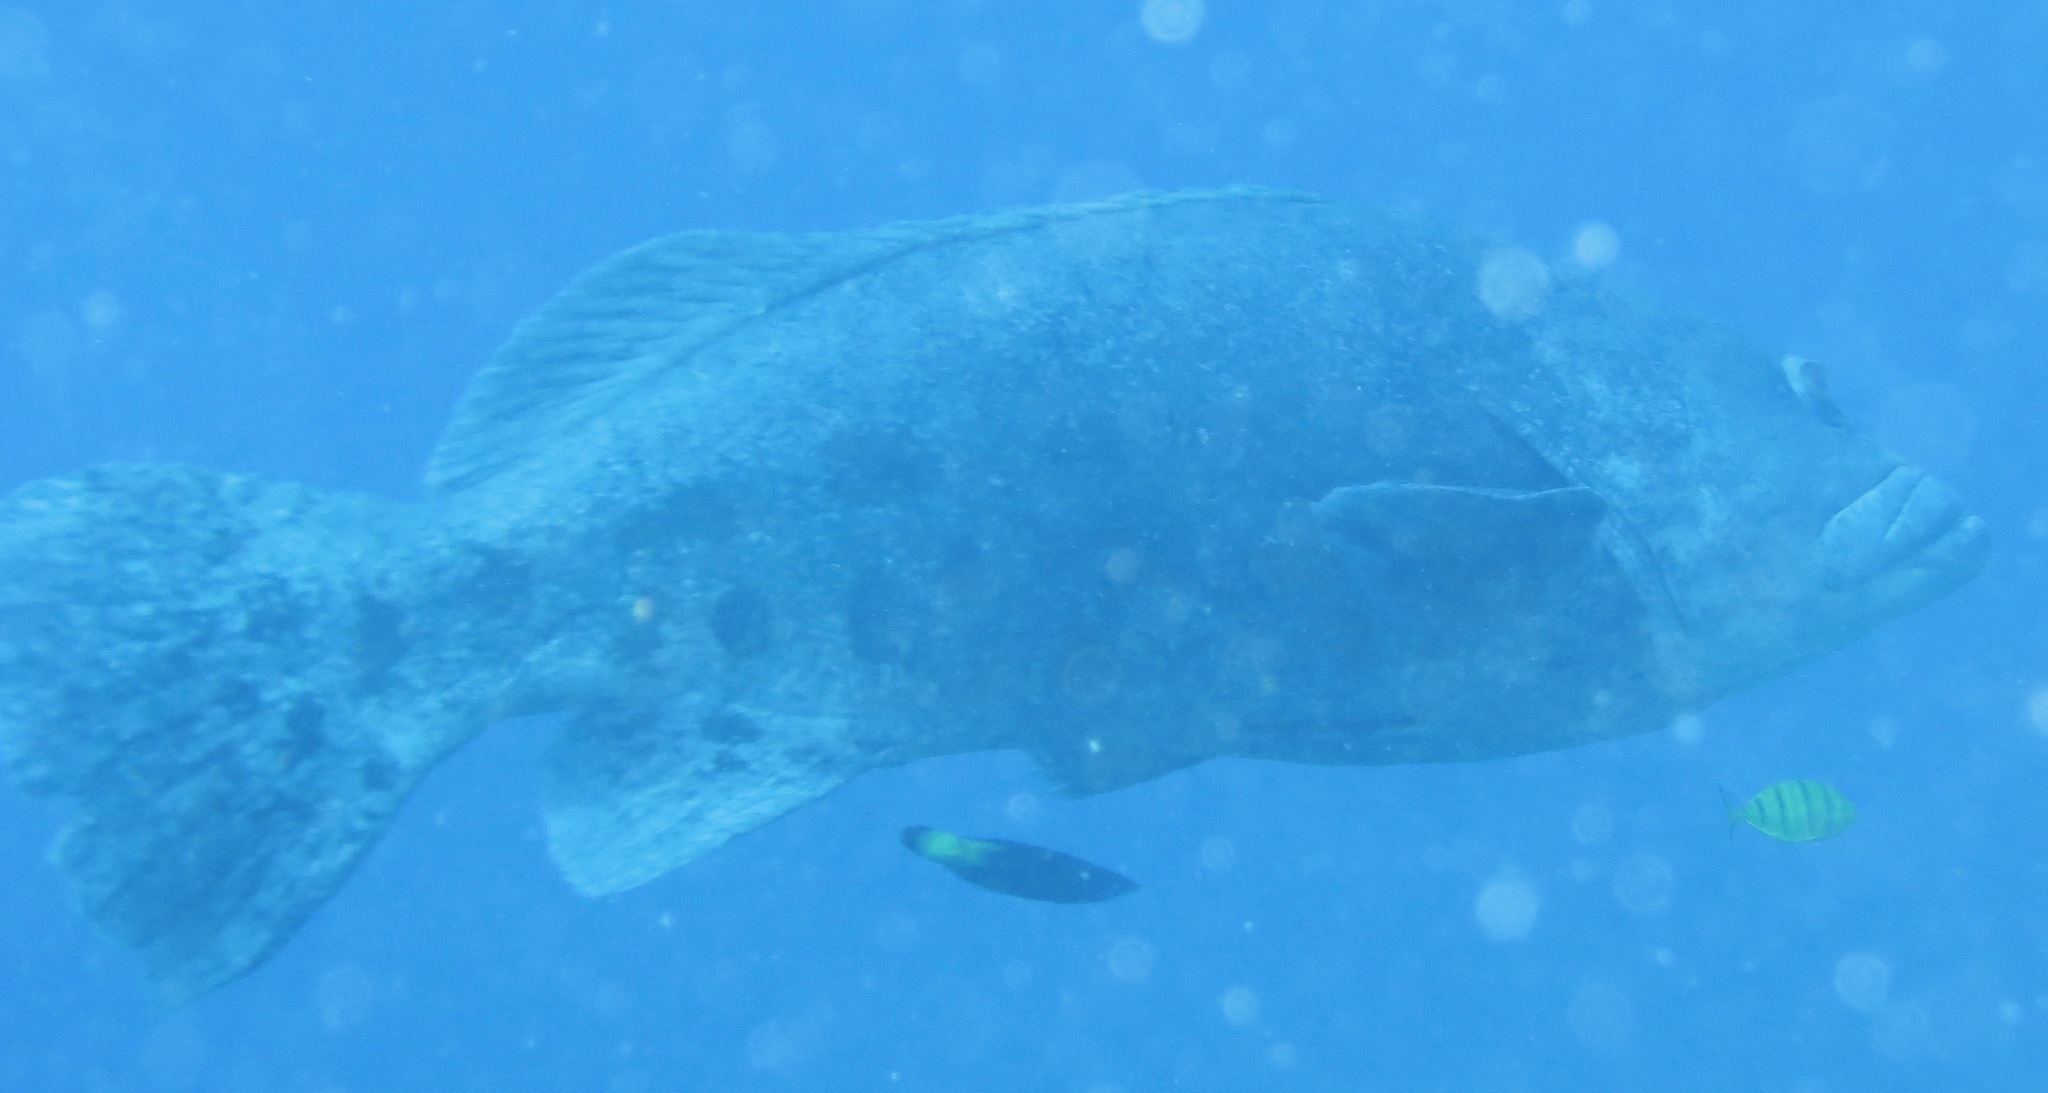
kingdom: Animalia
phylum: Chordata
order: Perciformes
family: Serranidae
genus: Epinephelus
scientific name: Epinephelus tukula
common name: Potato cod
